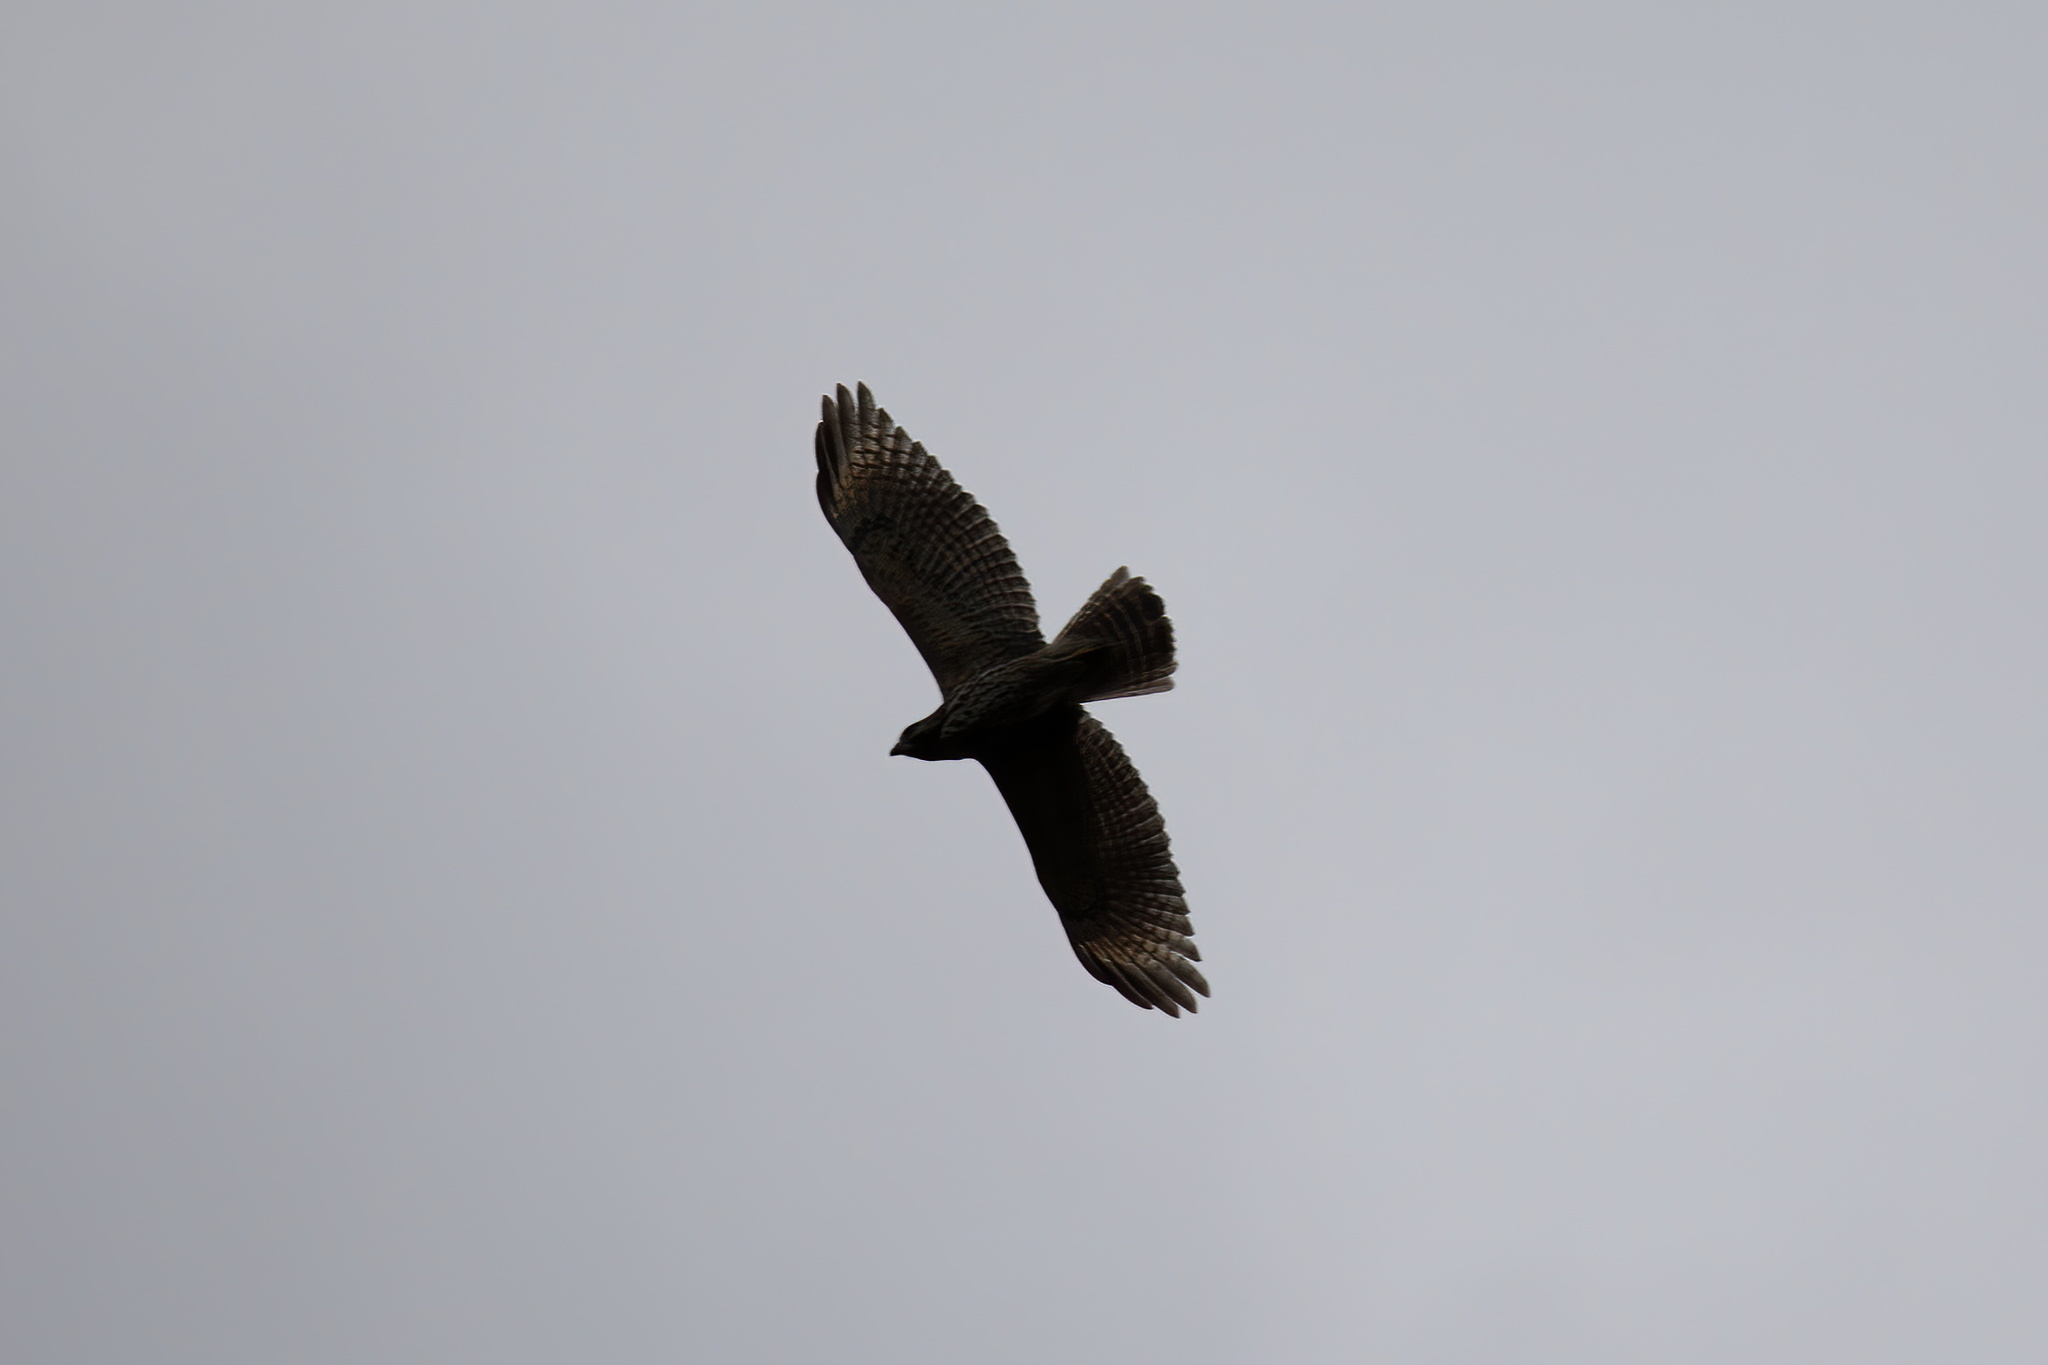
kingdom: Animalia
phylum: Chordata
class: Aves
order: Accipitriformes
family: Accipitridae
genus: Buteo
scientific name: Buteo lineatus
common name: Red-shouldered hawk
